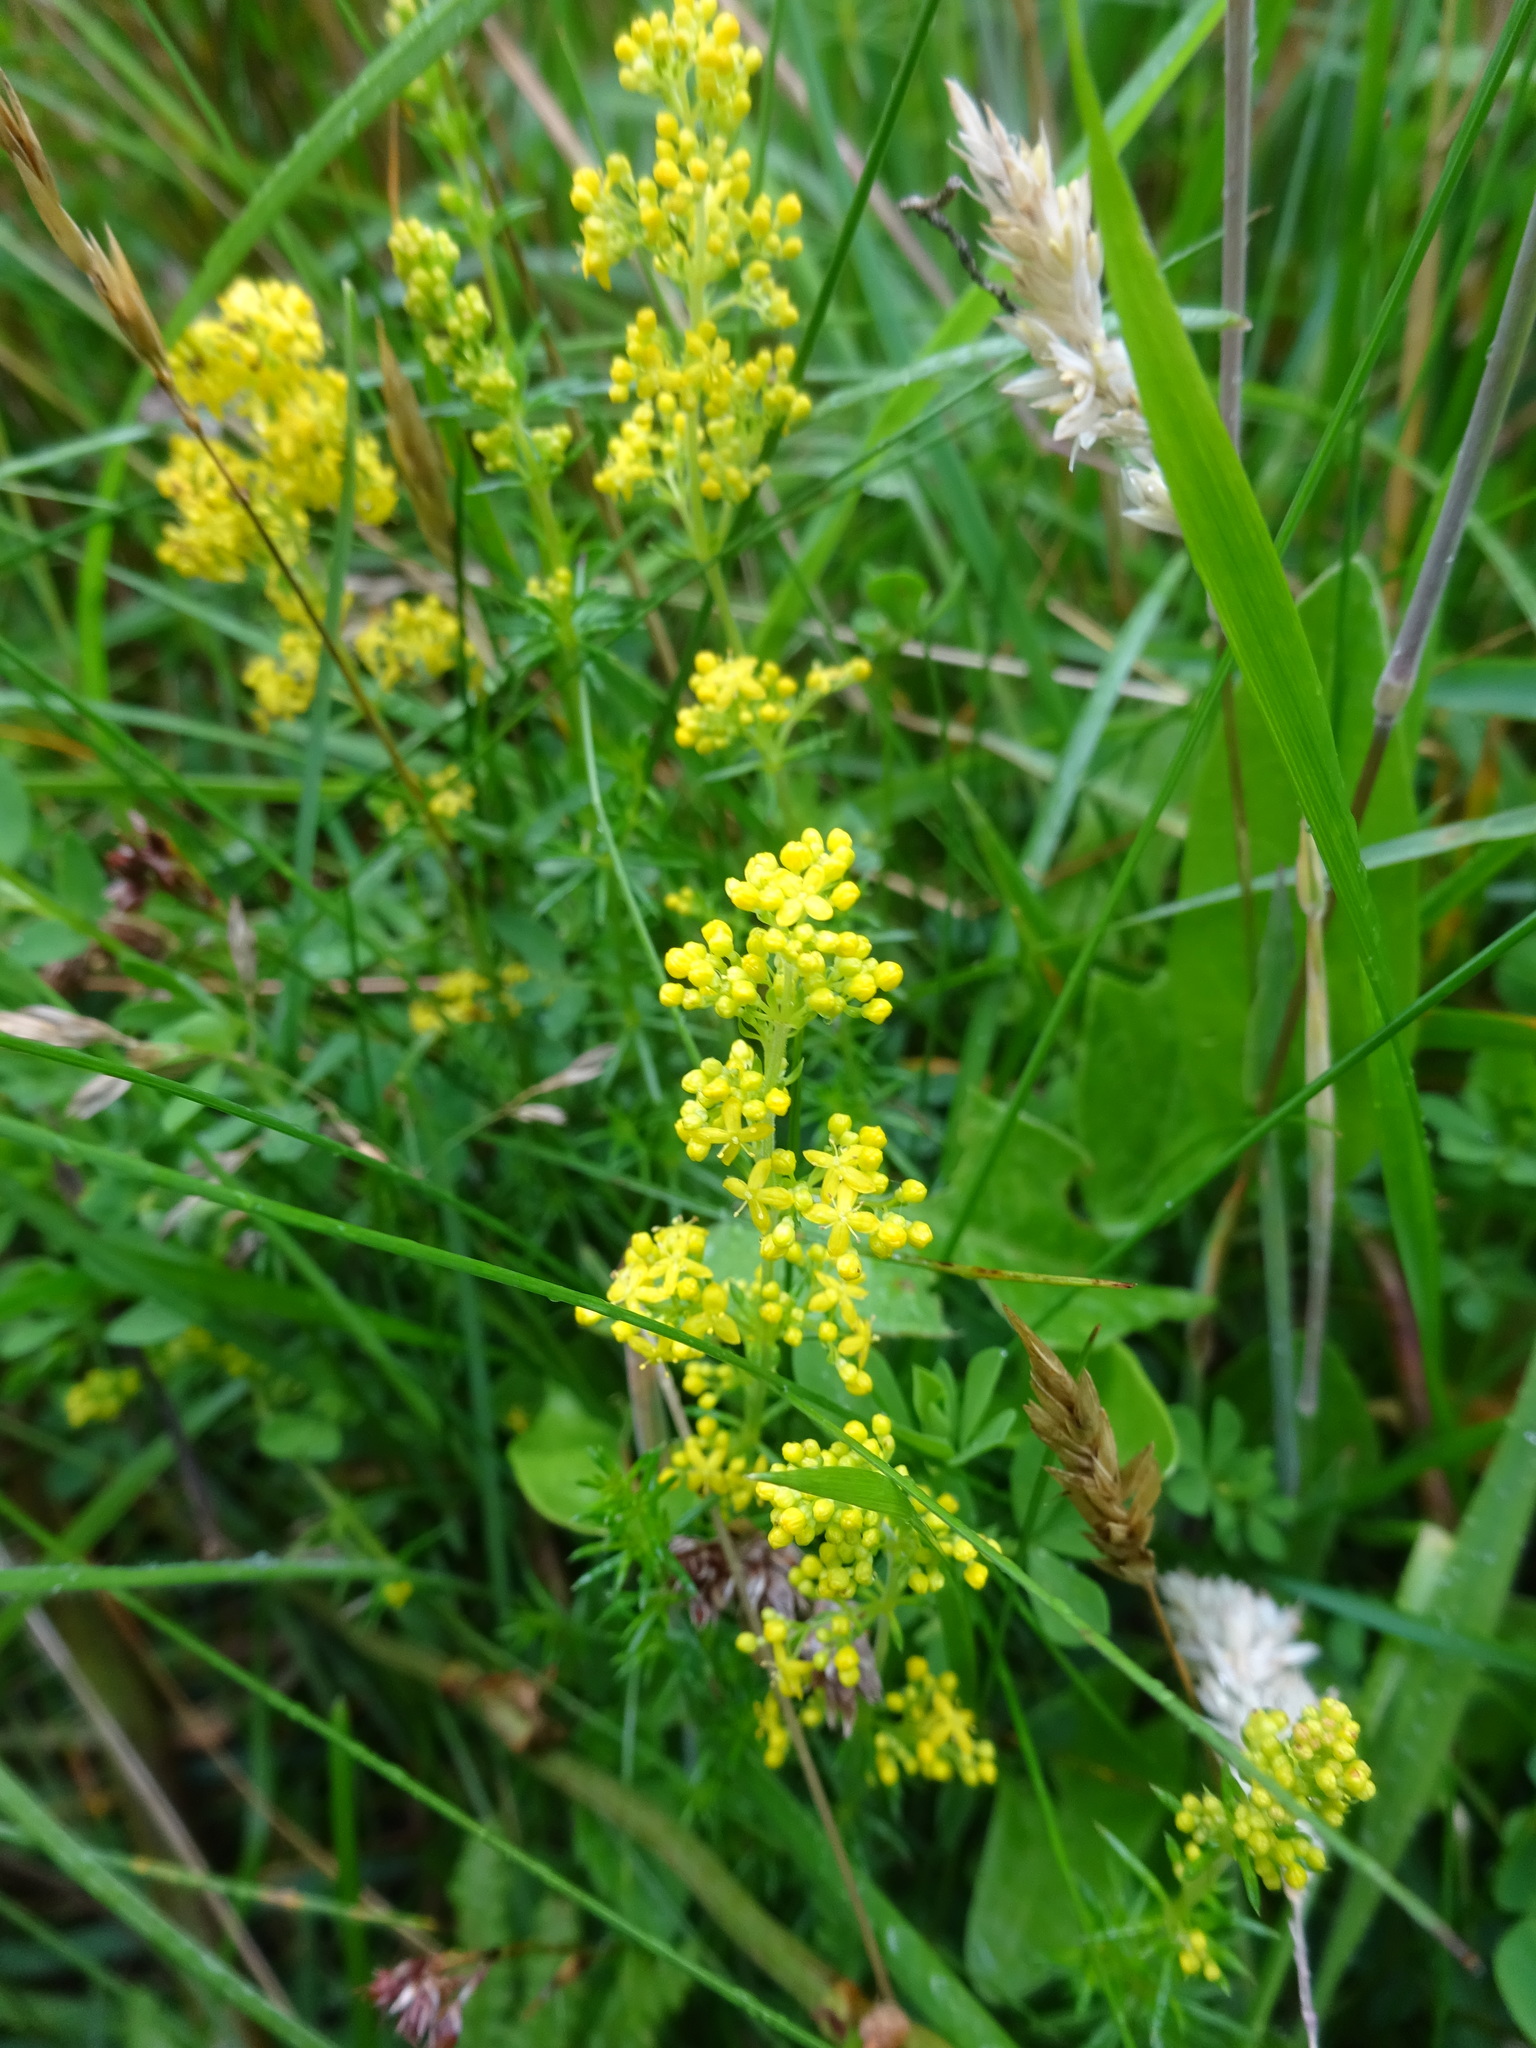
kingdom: Plantae
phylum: Tracheophyta
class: Magnoliopsida
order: Gentianales
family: Rubiaceae
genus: Galium
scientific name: Galium verum
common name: Lady's bedstraw
